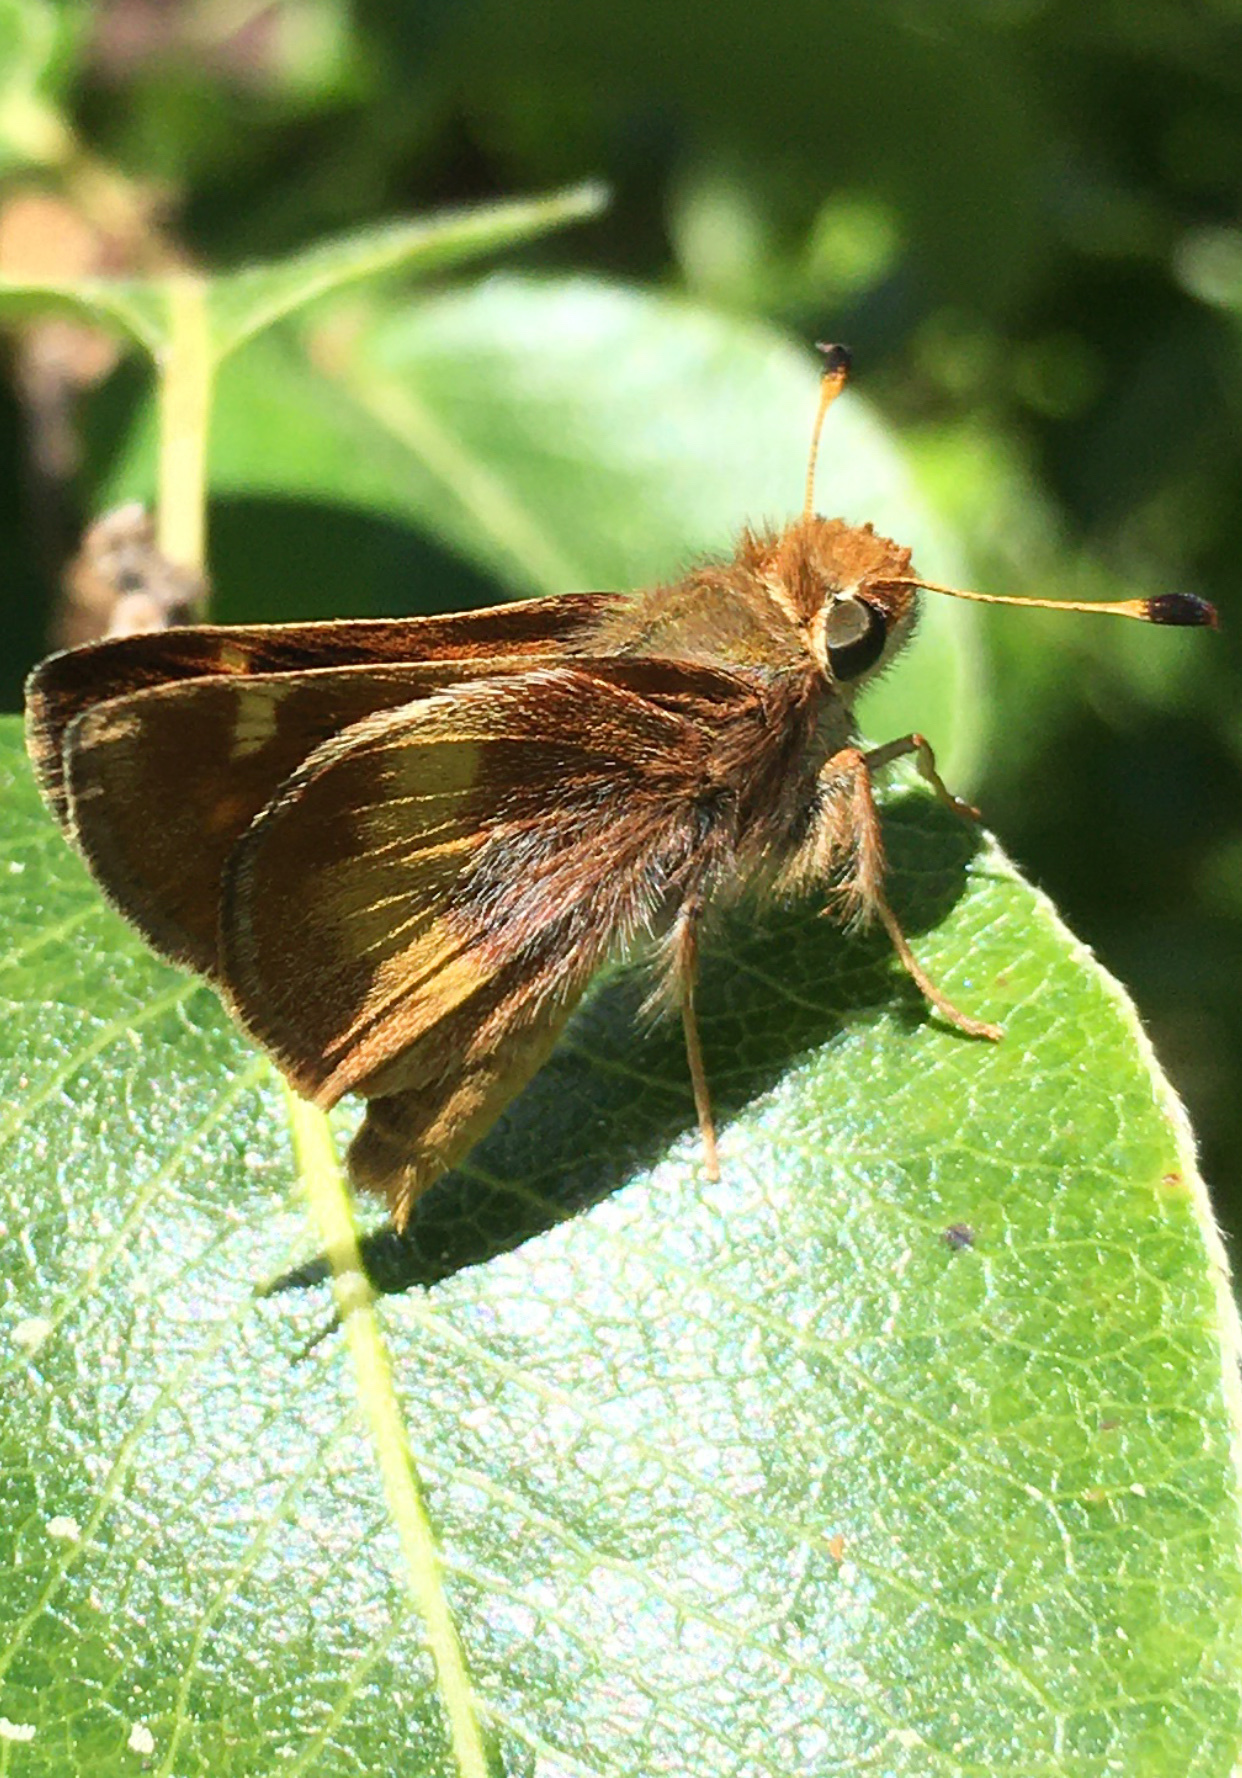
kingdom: Animalia
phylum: Arthropoda
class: Insecta
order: Lepidoptera
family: Hesperiidae
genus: Lon
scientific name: Lon melane
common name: Umber skipper
